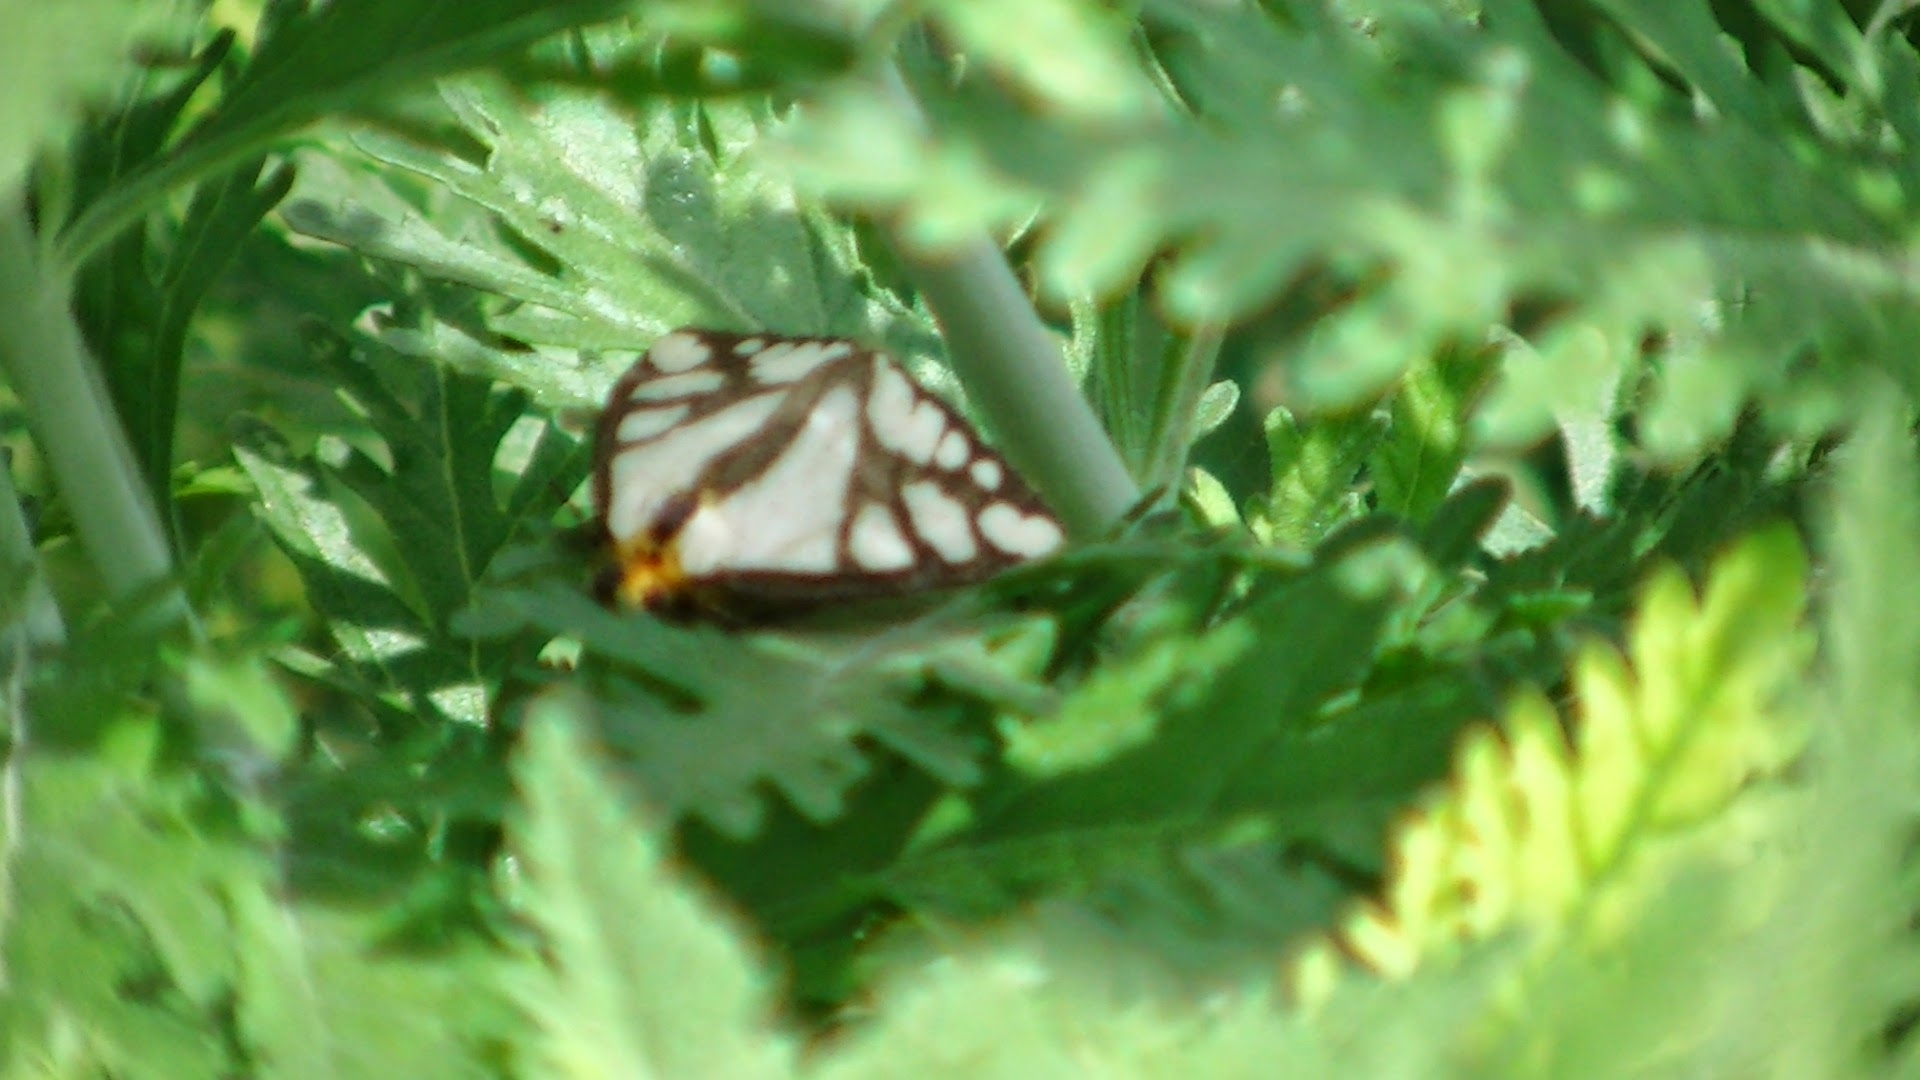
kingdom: Animalia
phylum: Arthropoda
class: Insecta
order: Lepidoptera
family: Erebidae
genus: Haploa
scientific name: Haploa reversa
